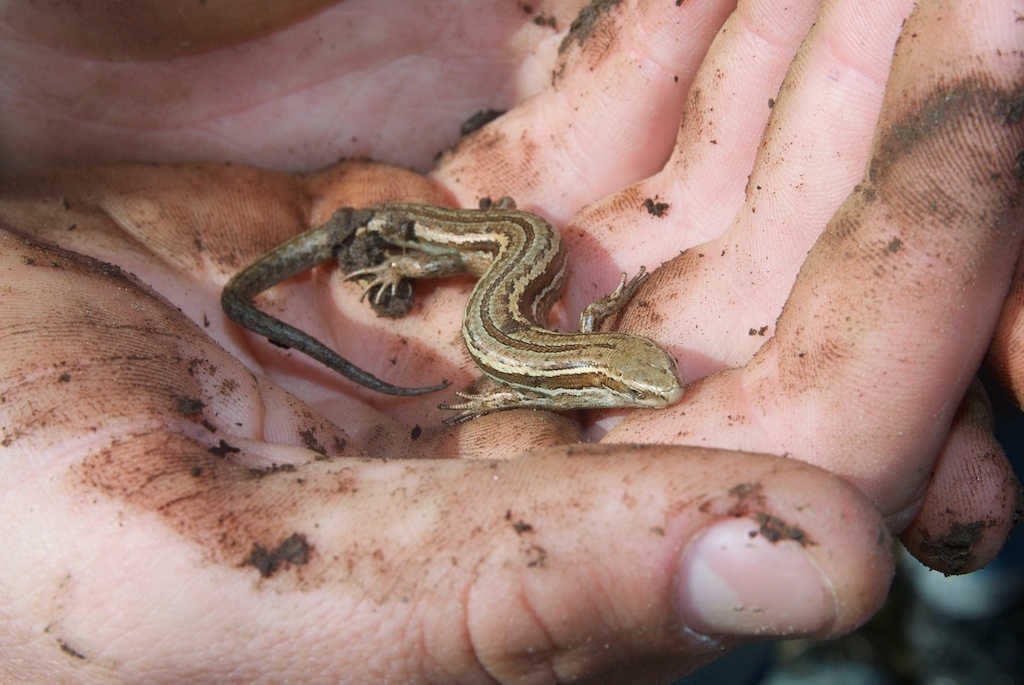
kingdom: Animalia
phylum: Chordata
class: Squamata
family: Scincidae
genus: Oligosoma
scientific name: Oligosoma polychroma
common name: Common new zealand skink
